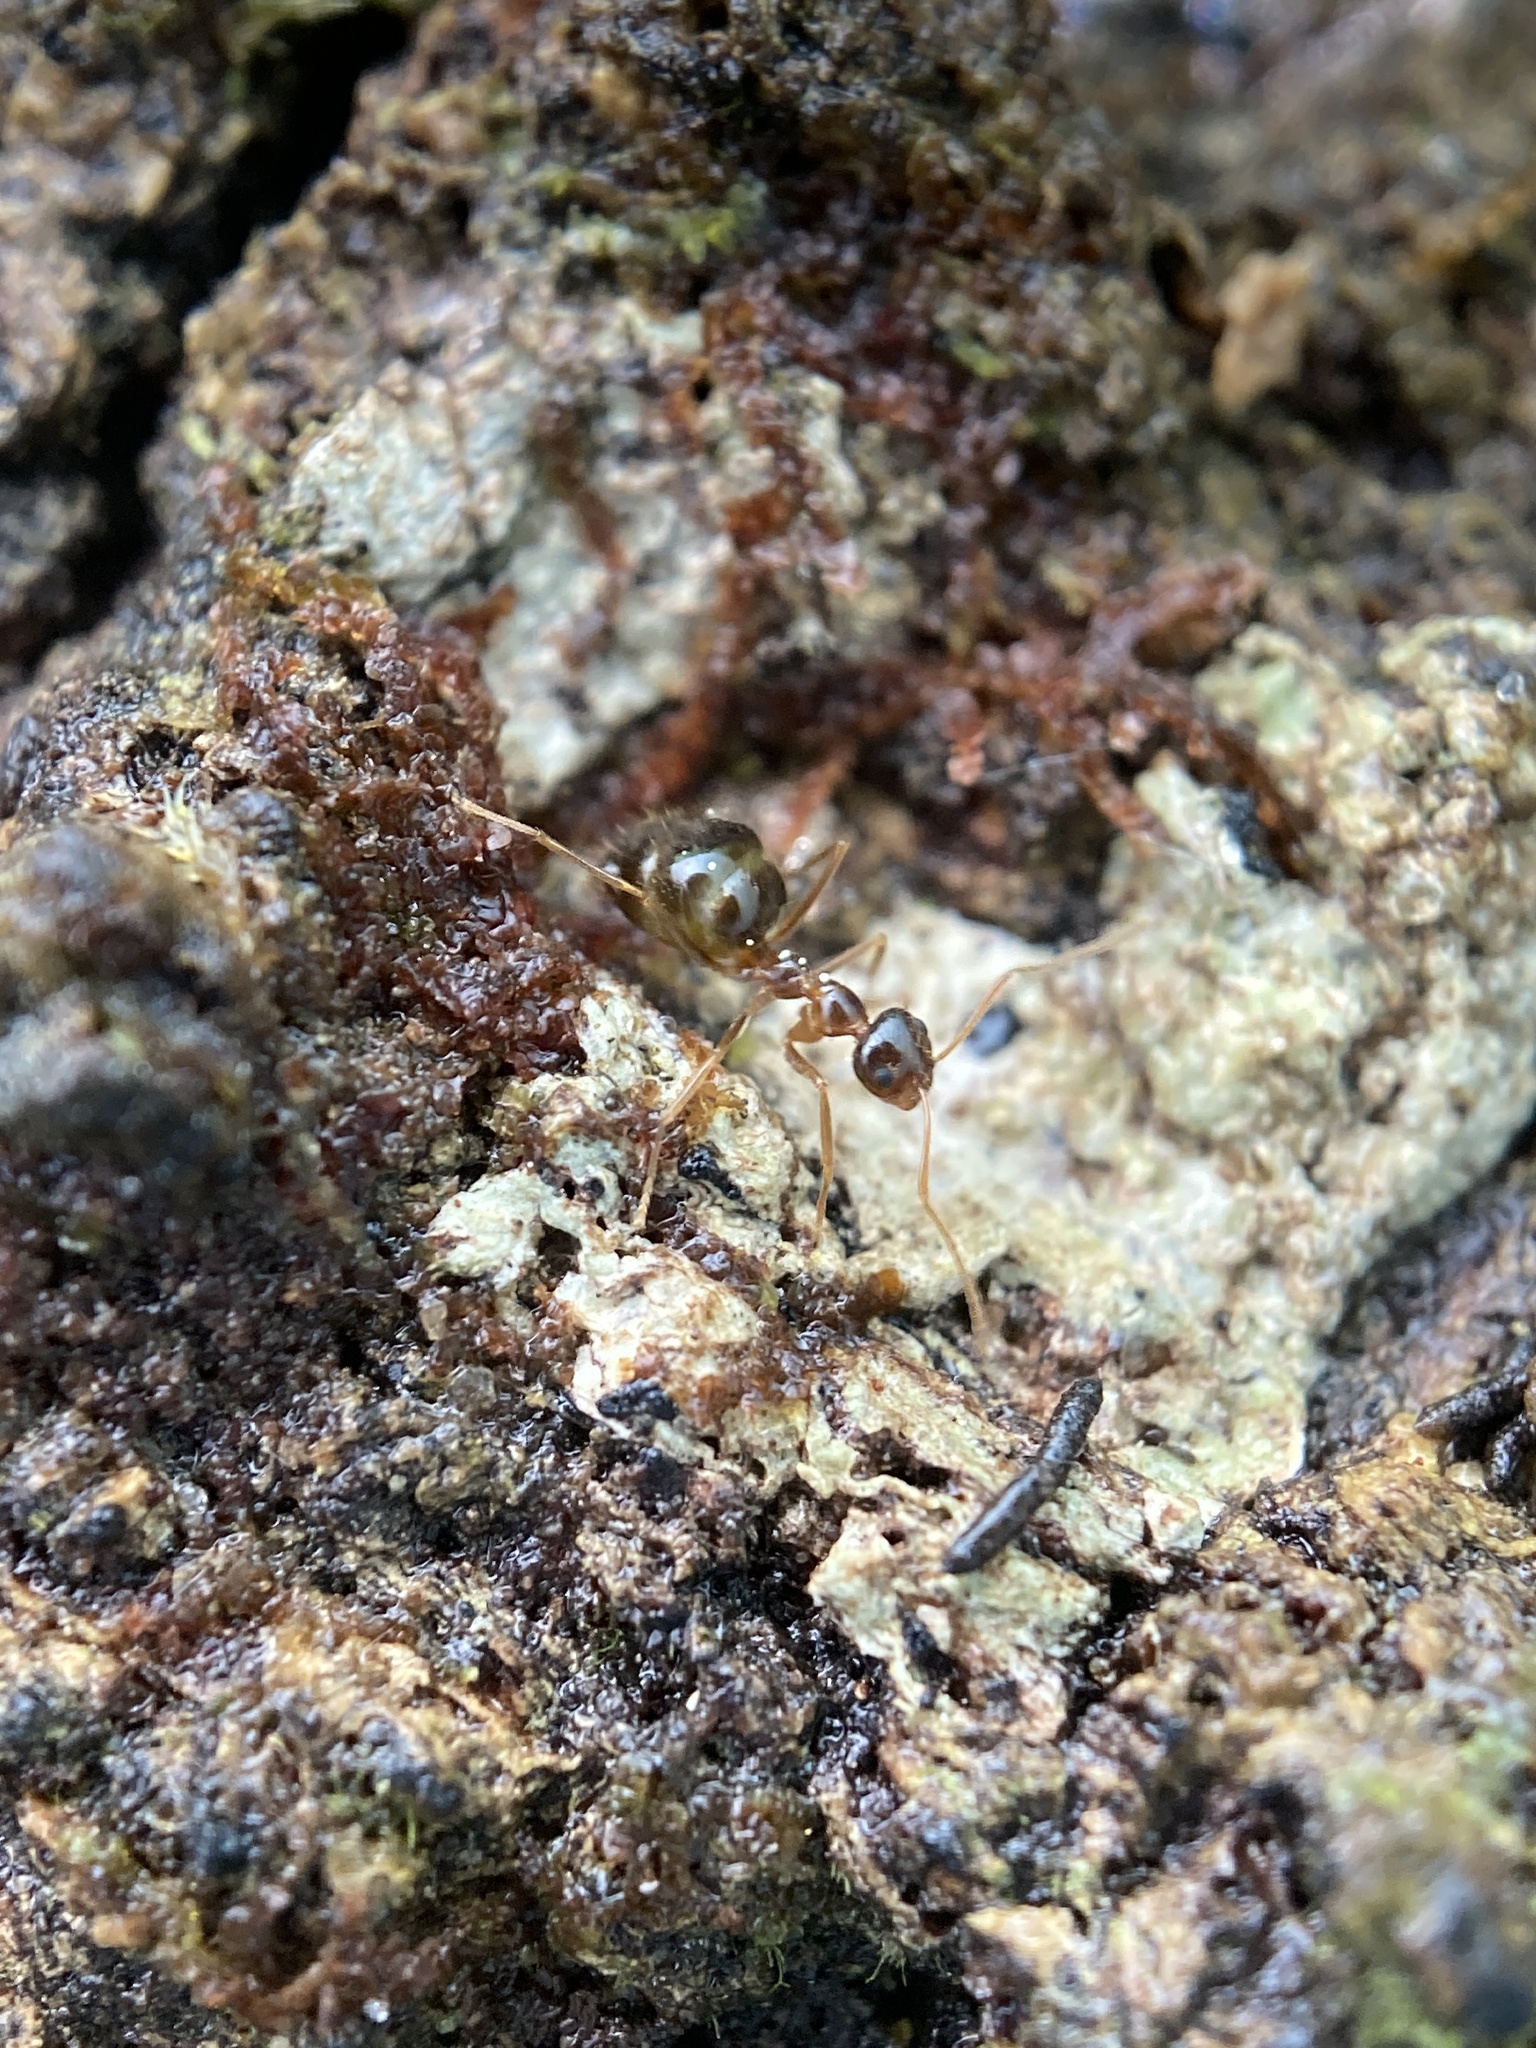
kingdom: Animalia
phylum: Arthropoda
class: Insecta
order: Hymenoptera
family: Formicidae
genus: Prenolepis
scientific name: Prenolepis imparis
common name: Small honey ant
